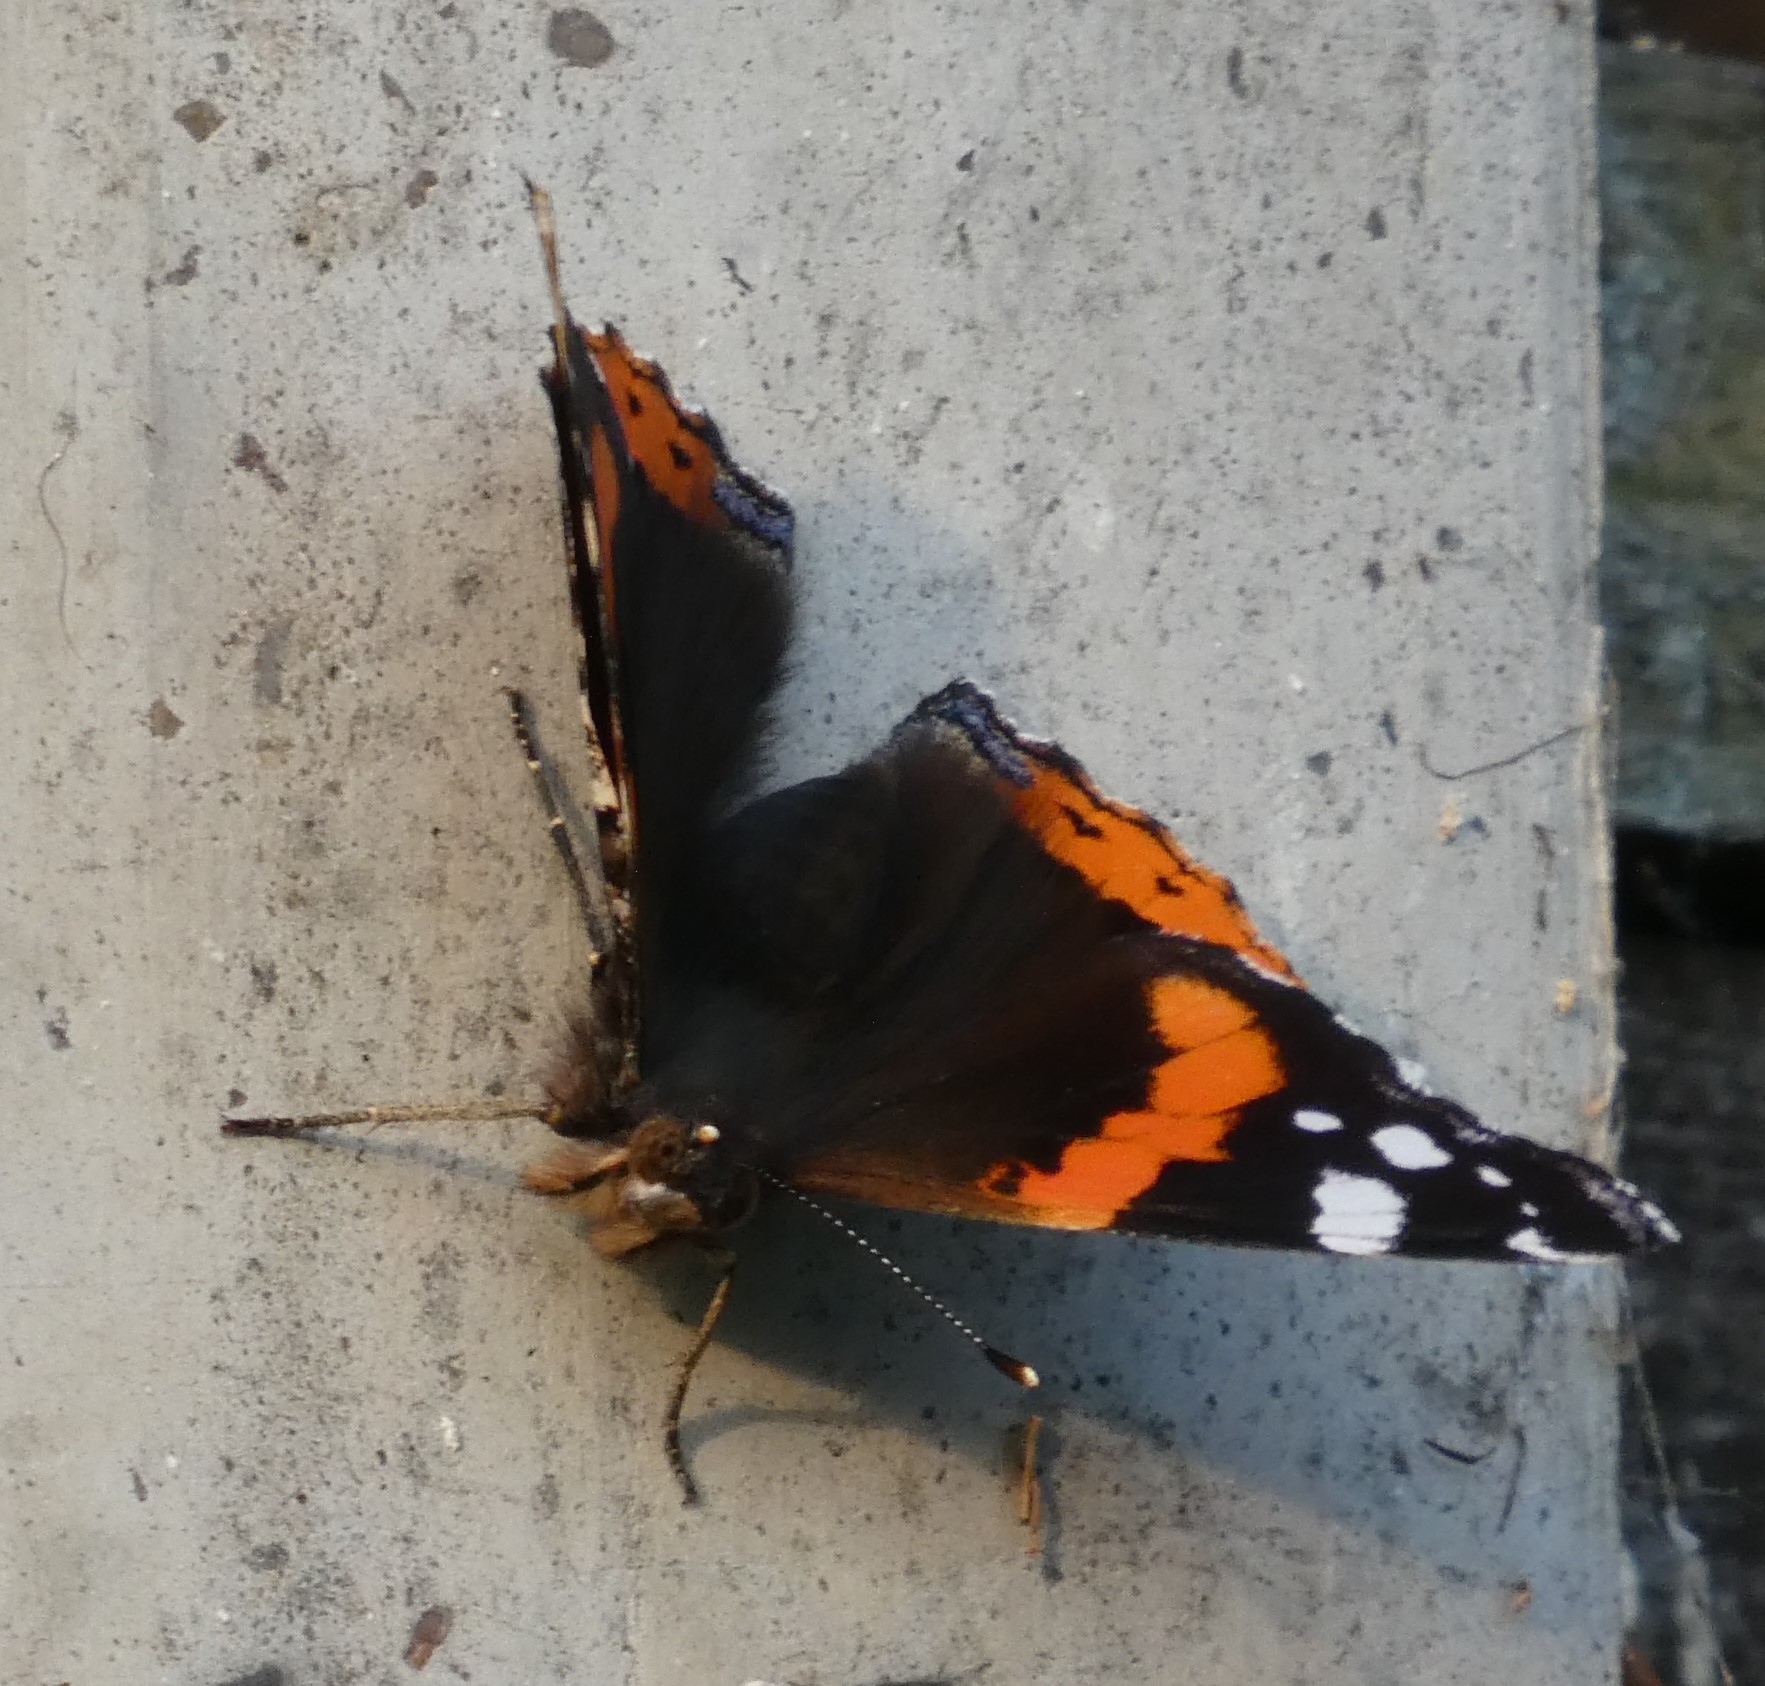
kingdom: Animalia
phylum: Arthropoda
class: Insecta
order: Lepidoptera
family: Nymphalidae
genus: Vanessa
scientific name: Vanessa atalanta
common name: Red admiral
